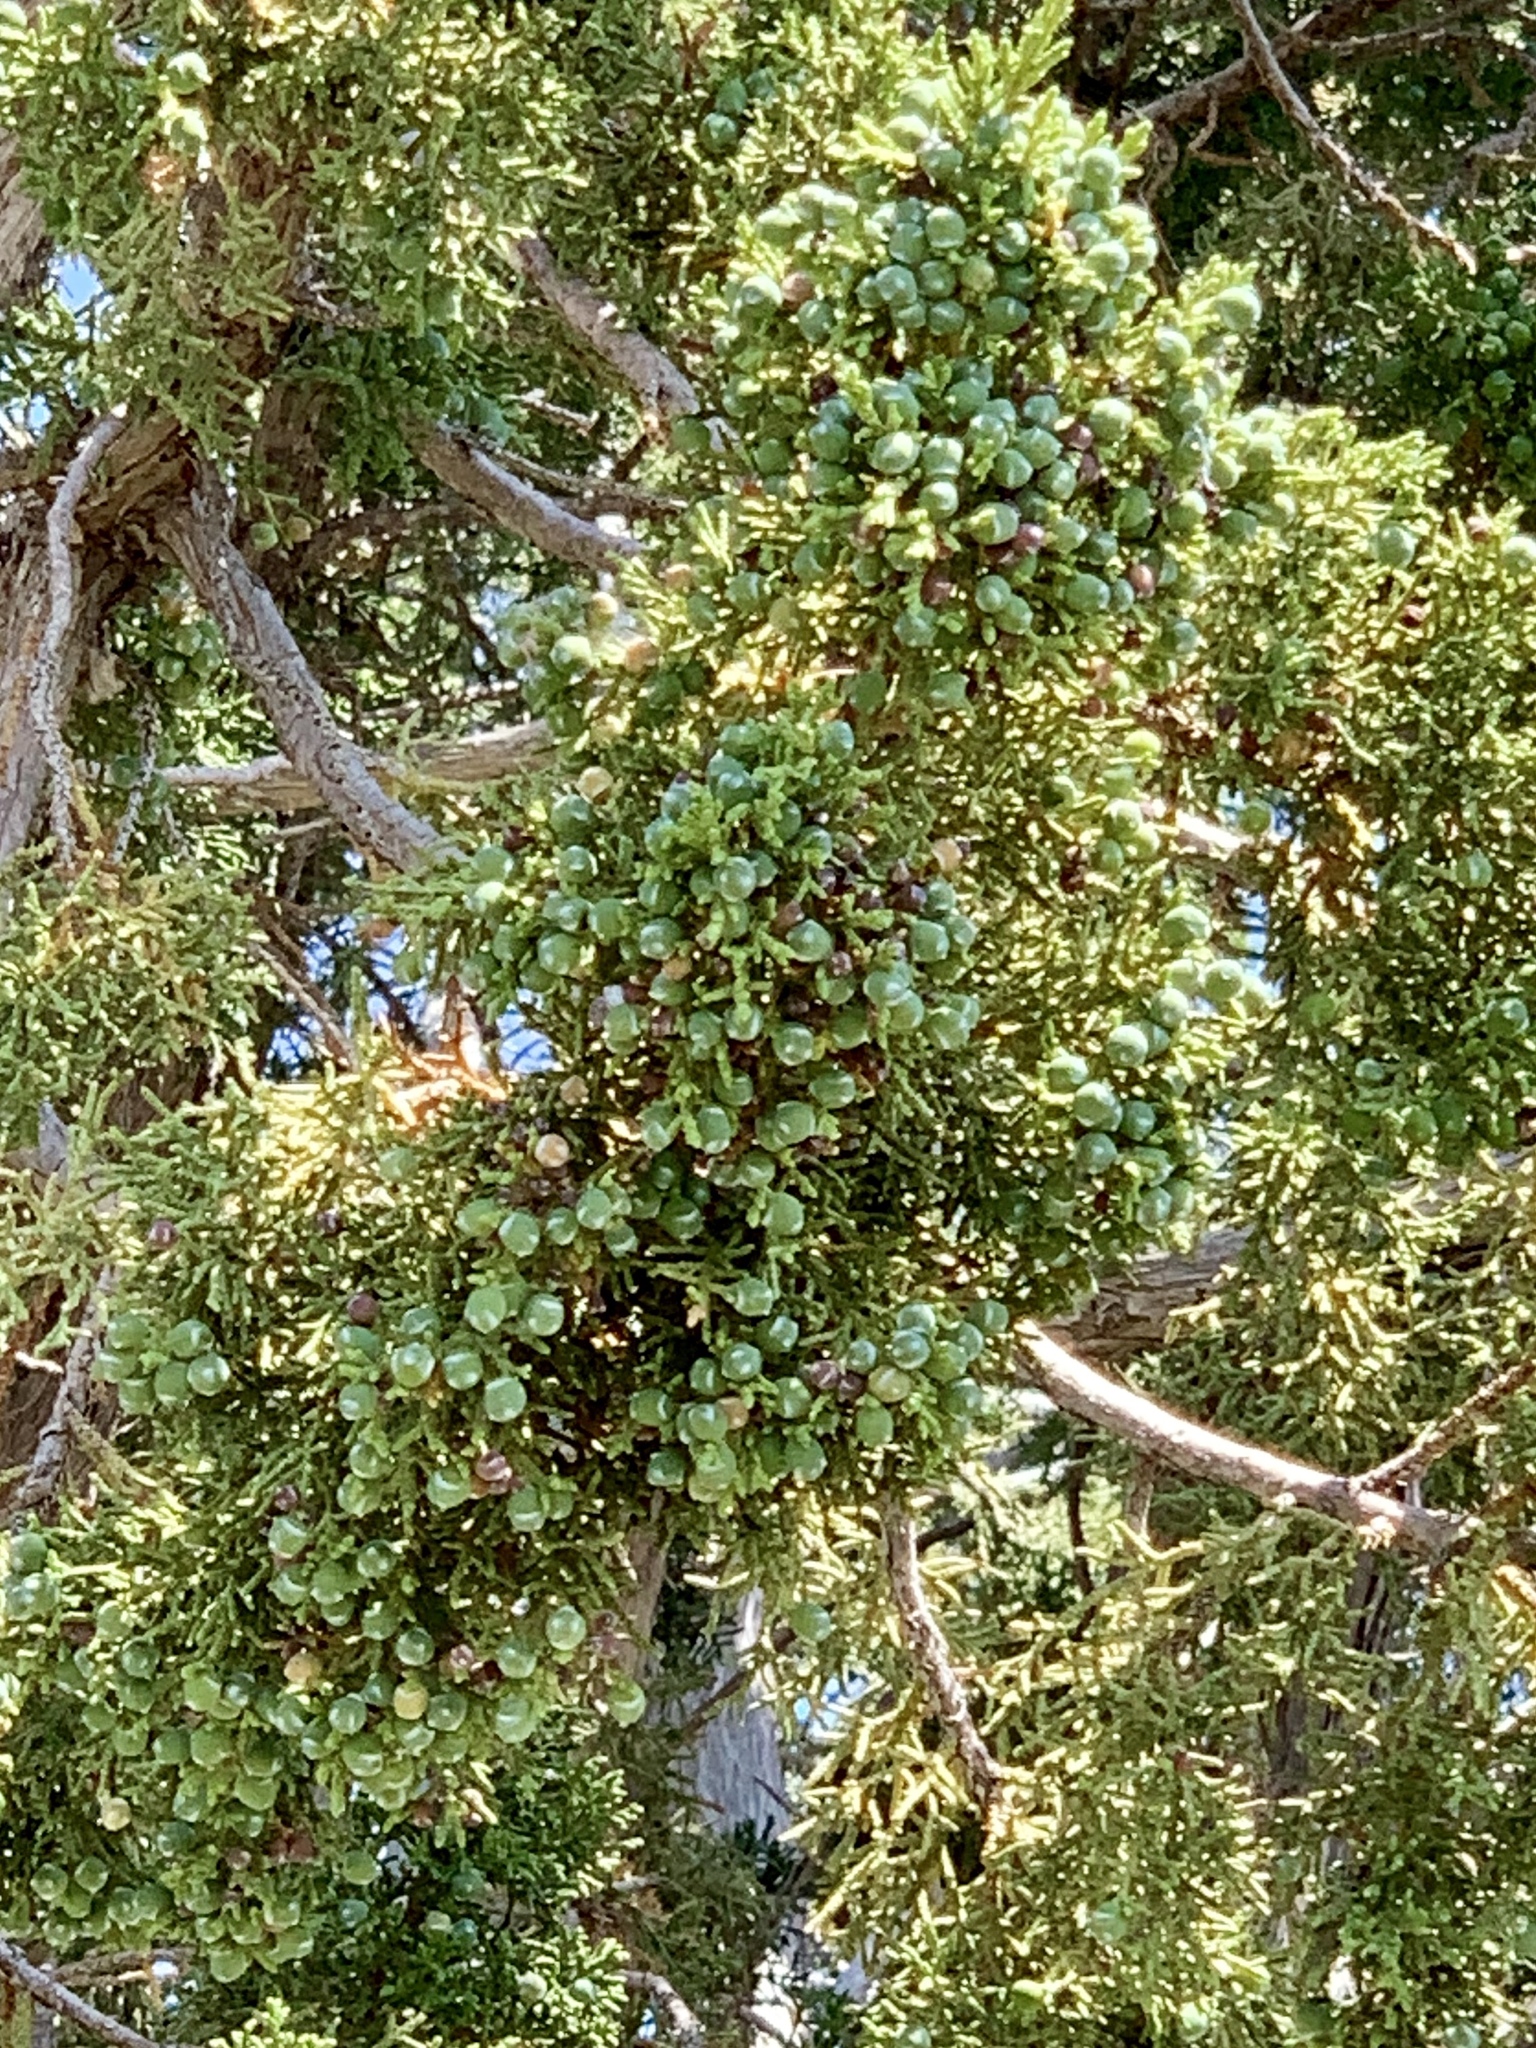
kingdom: Plantae
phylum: Tracheophyta
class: Pinopsida
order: Pinales
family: Cupressaceae
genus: Juniperus
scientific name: Juniperus monosperma
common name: One-seed juniper
